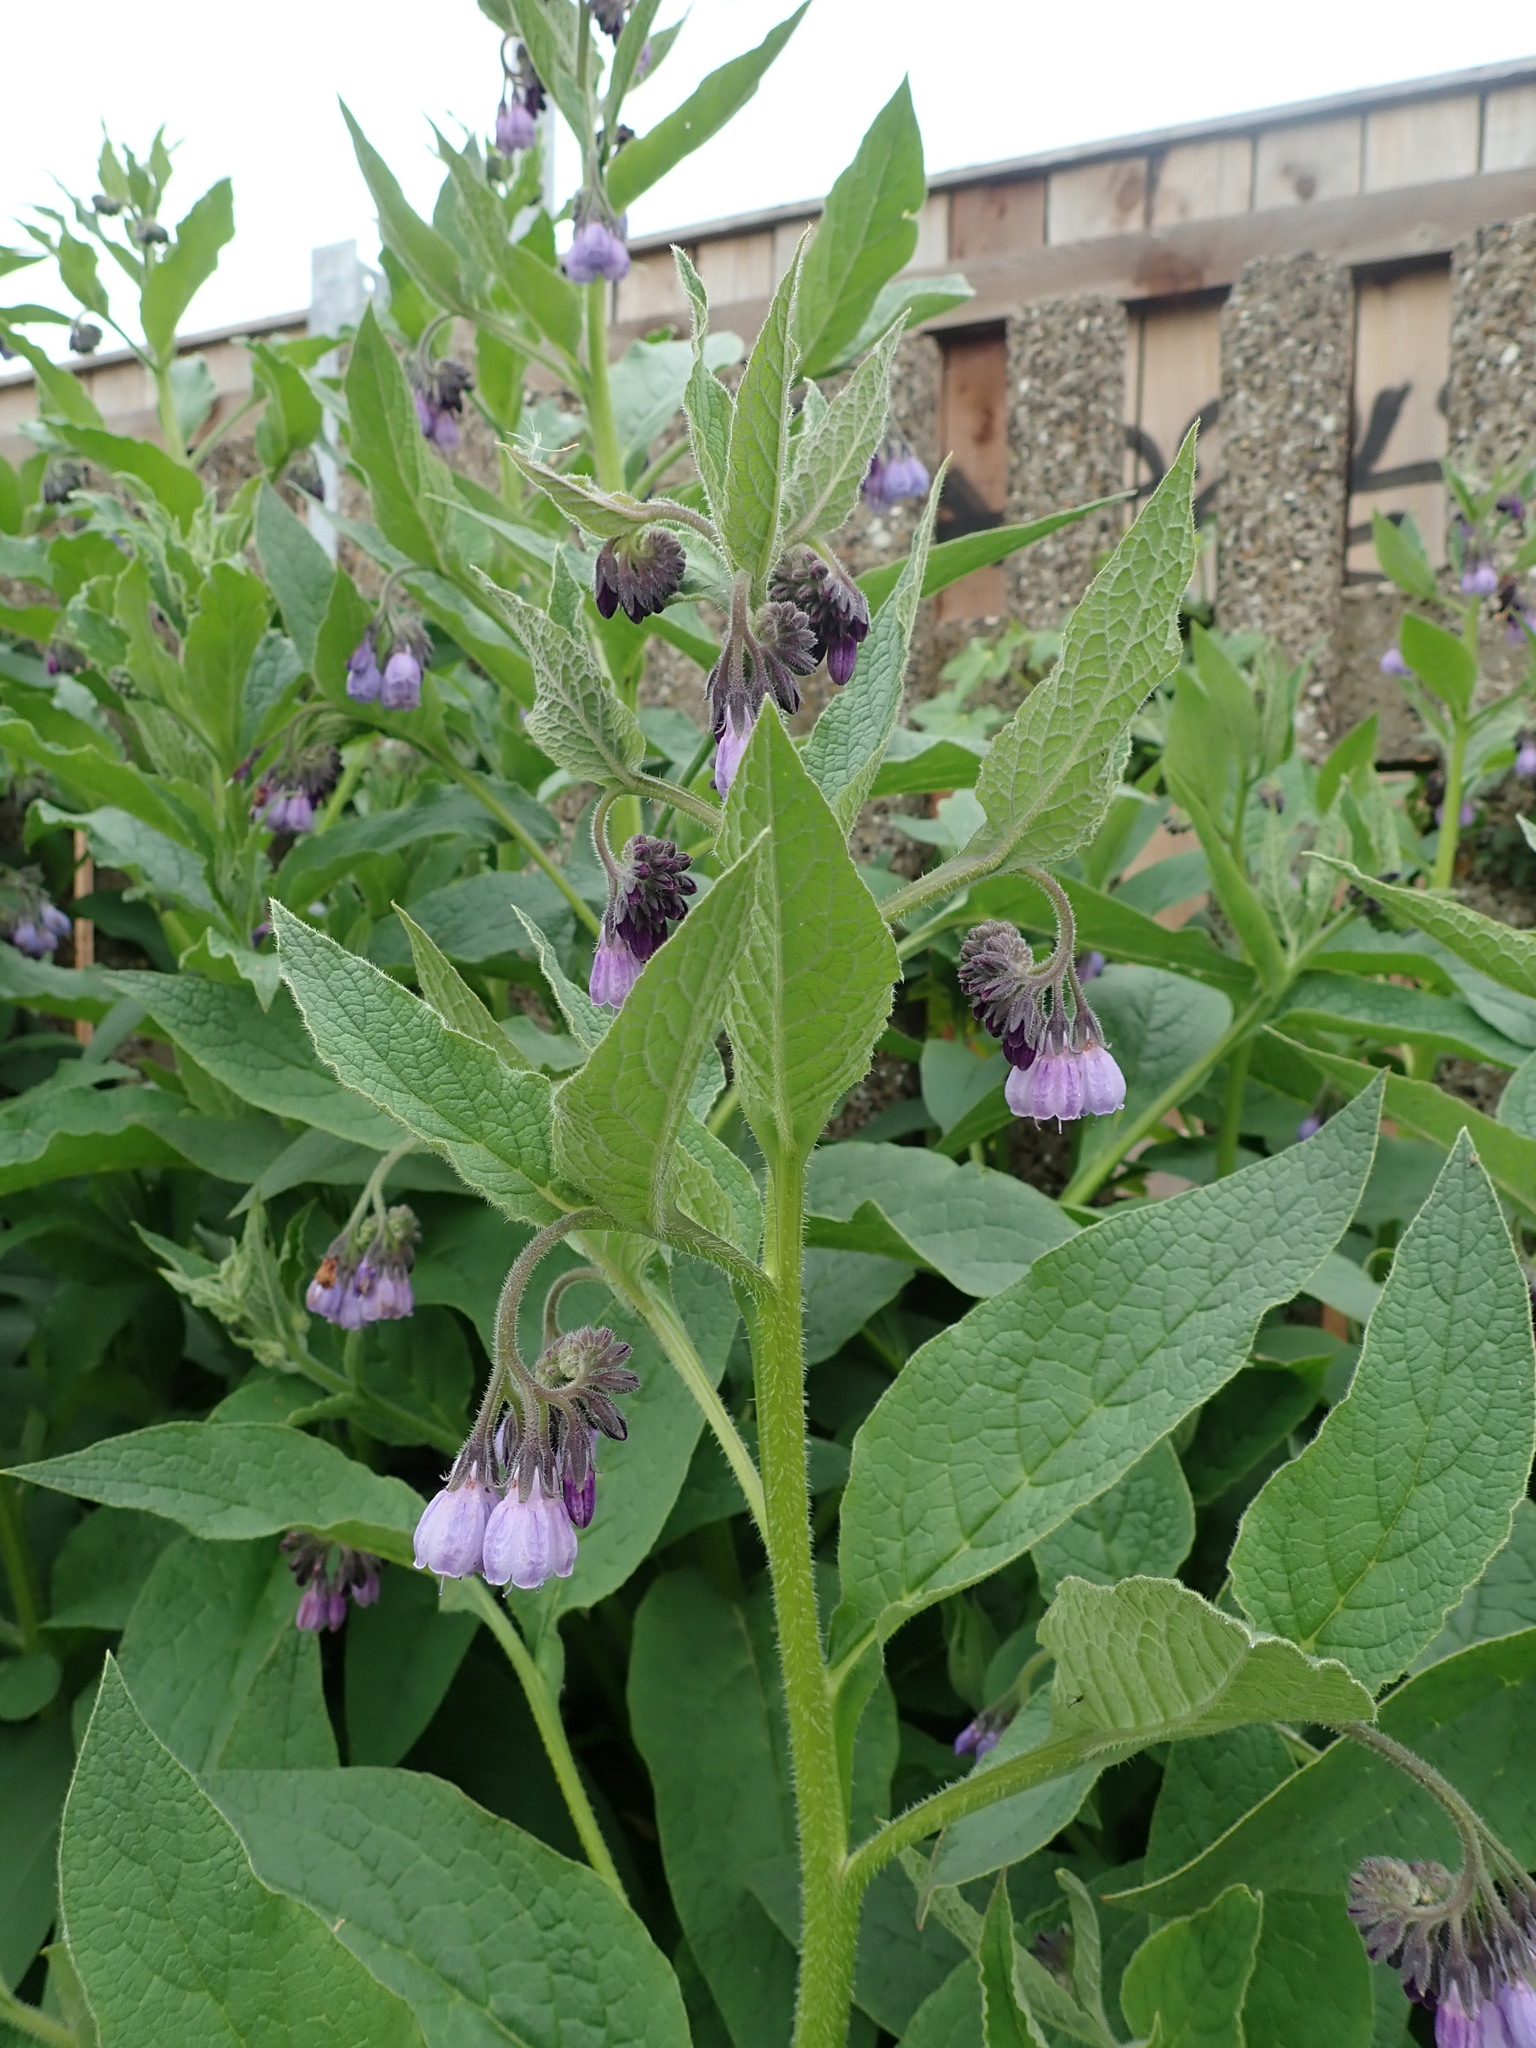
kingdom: Plantae
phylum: Tracheophyta
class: Magnoliopsida
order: Boraginales
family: Boraginaceae
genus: Symphytum
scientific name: Symphytum uplandicum
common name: Russian comfrey
